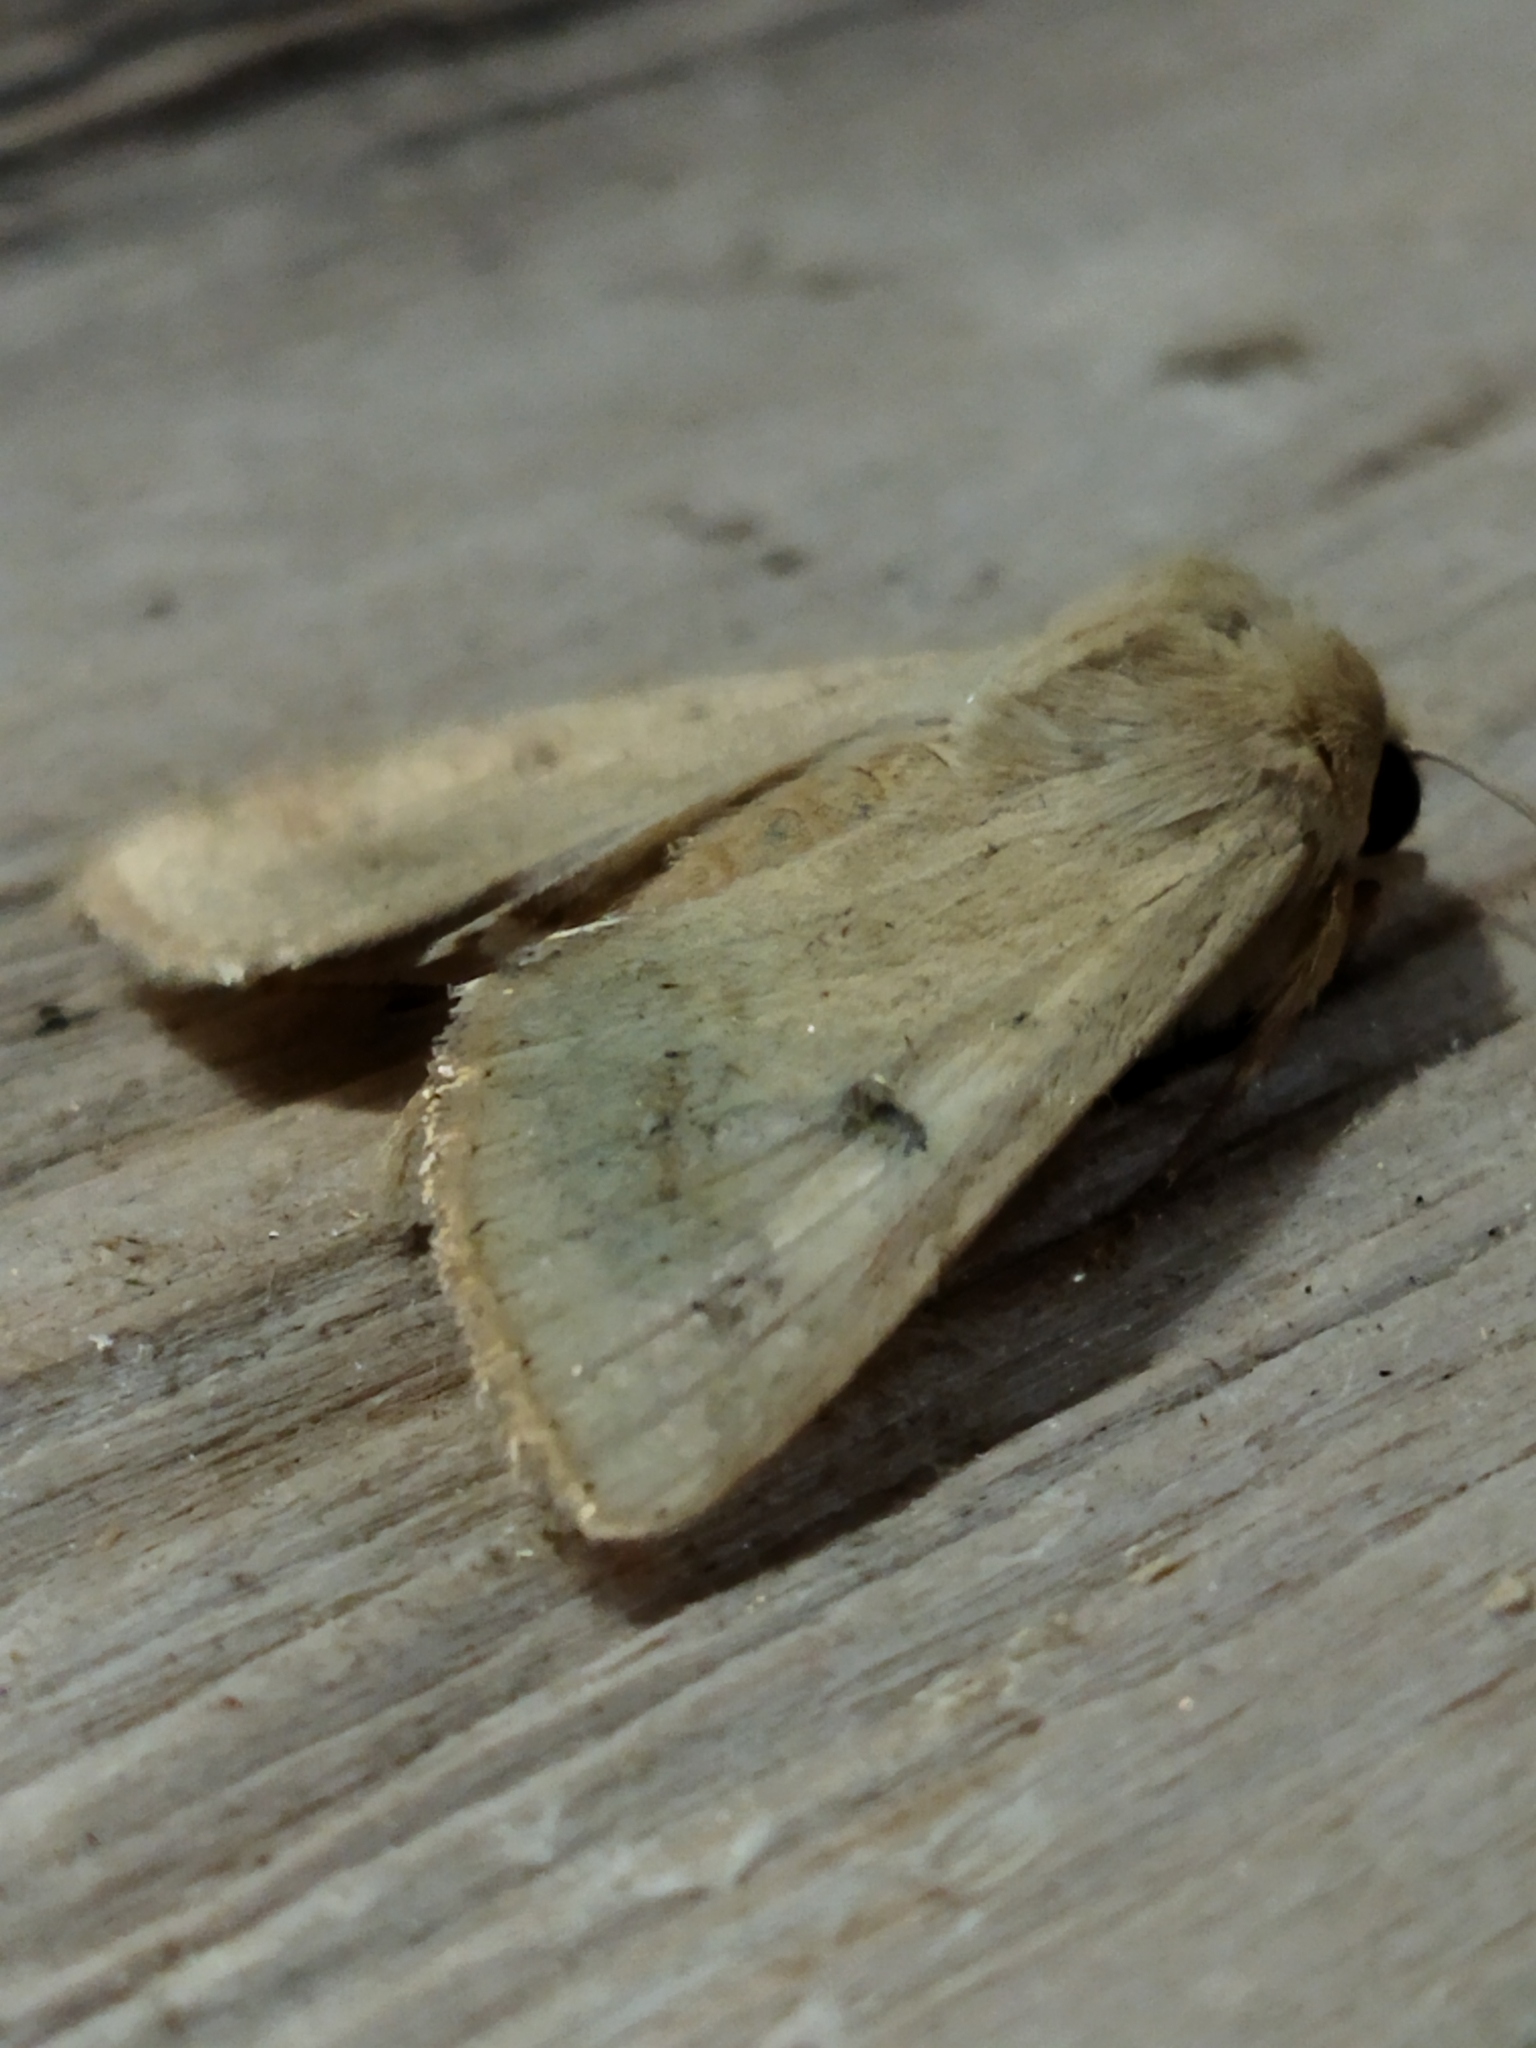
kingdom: Animalia
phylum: Arthropoda
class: Insecta
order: Lepidoptera
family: Noctuidae
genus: Helicoverpa
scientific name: Helicoverpa armigera
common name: Cotton bollworm
